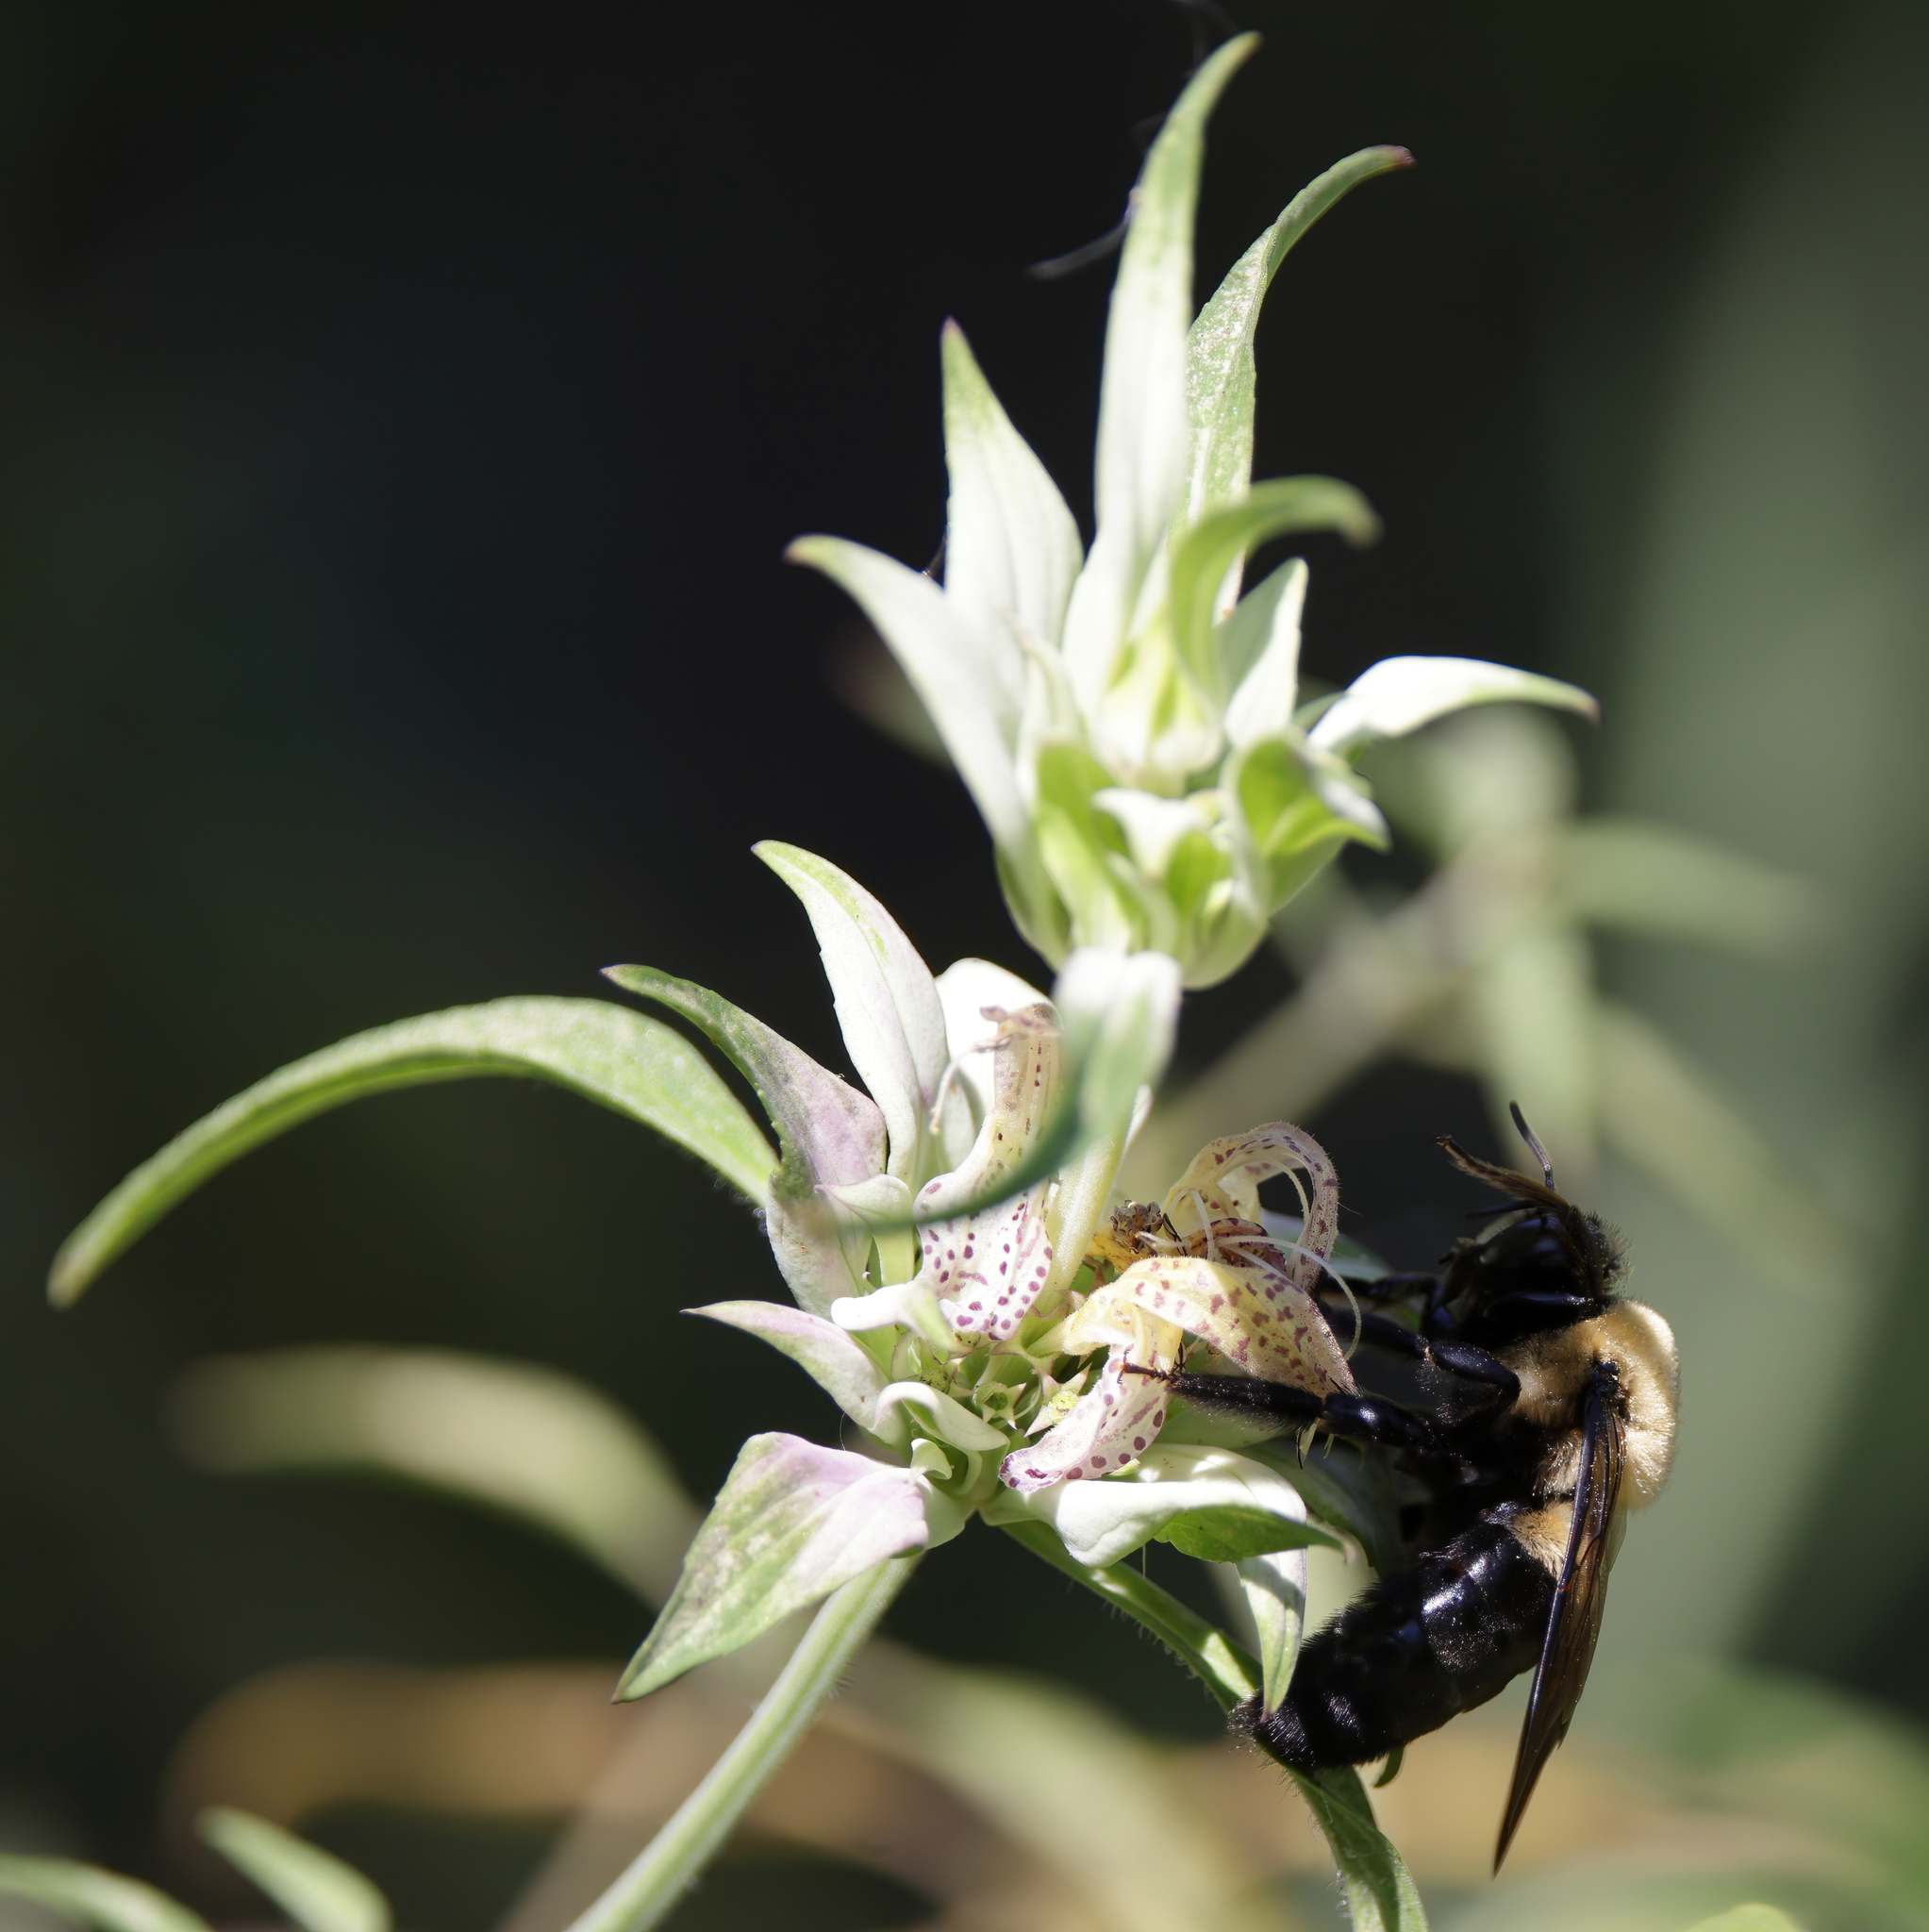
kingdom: Animalia
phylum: Arthropoda
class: Insecta
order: Hymenoptera
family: Apidae
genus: Xylocopa
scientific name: Xylocopa virginica
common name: Carpenter bee
